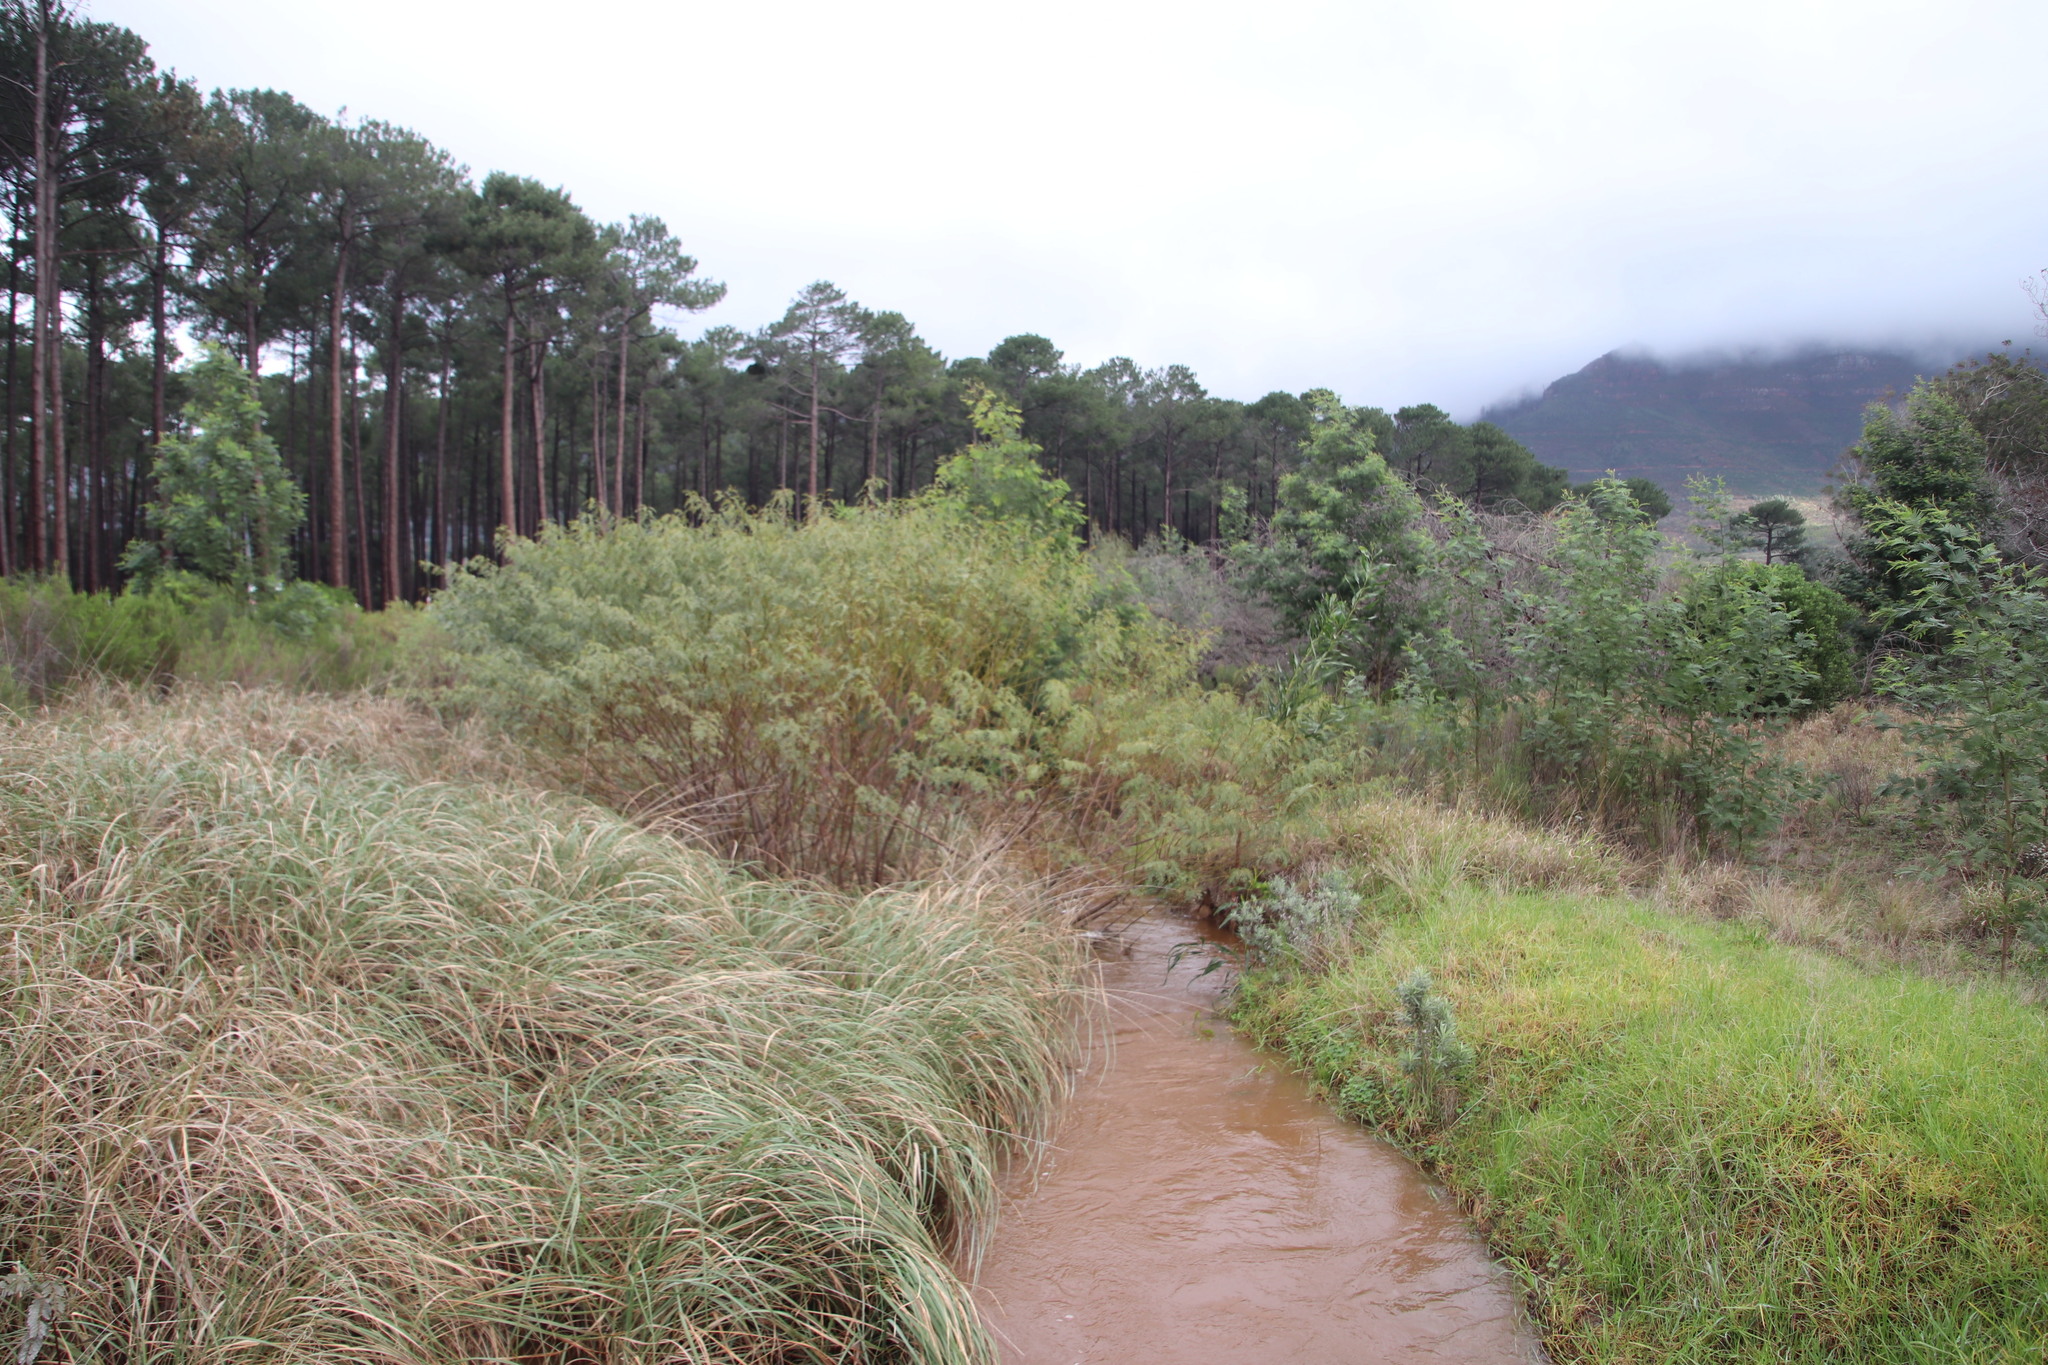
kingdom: Plantae
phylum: Tracheophyta
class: Magnoliopsida
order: Fabales
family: Fabaceae
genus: Sesbania
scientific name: Sesbania punicea
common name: Rattlebox
